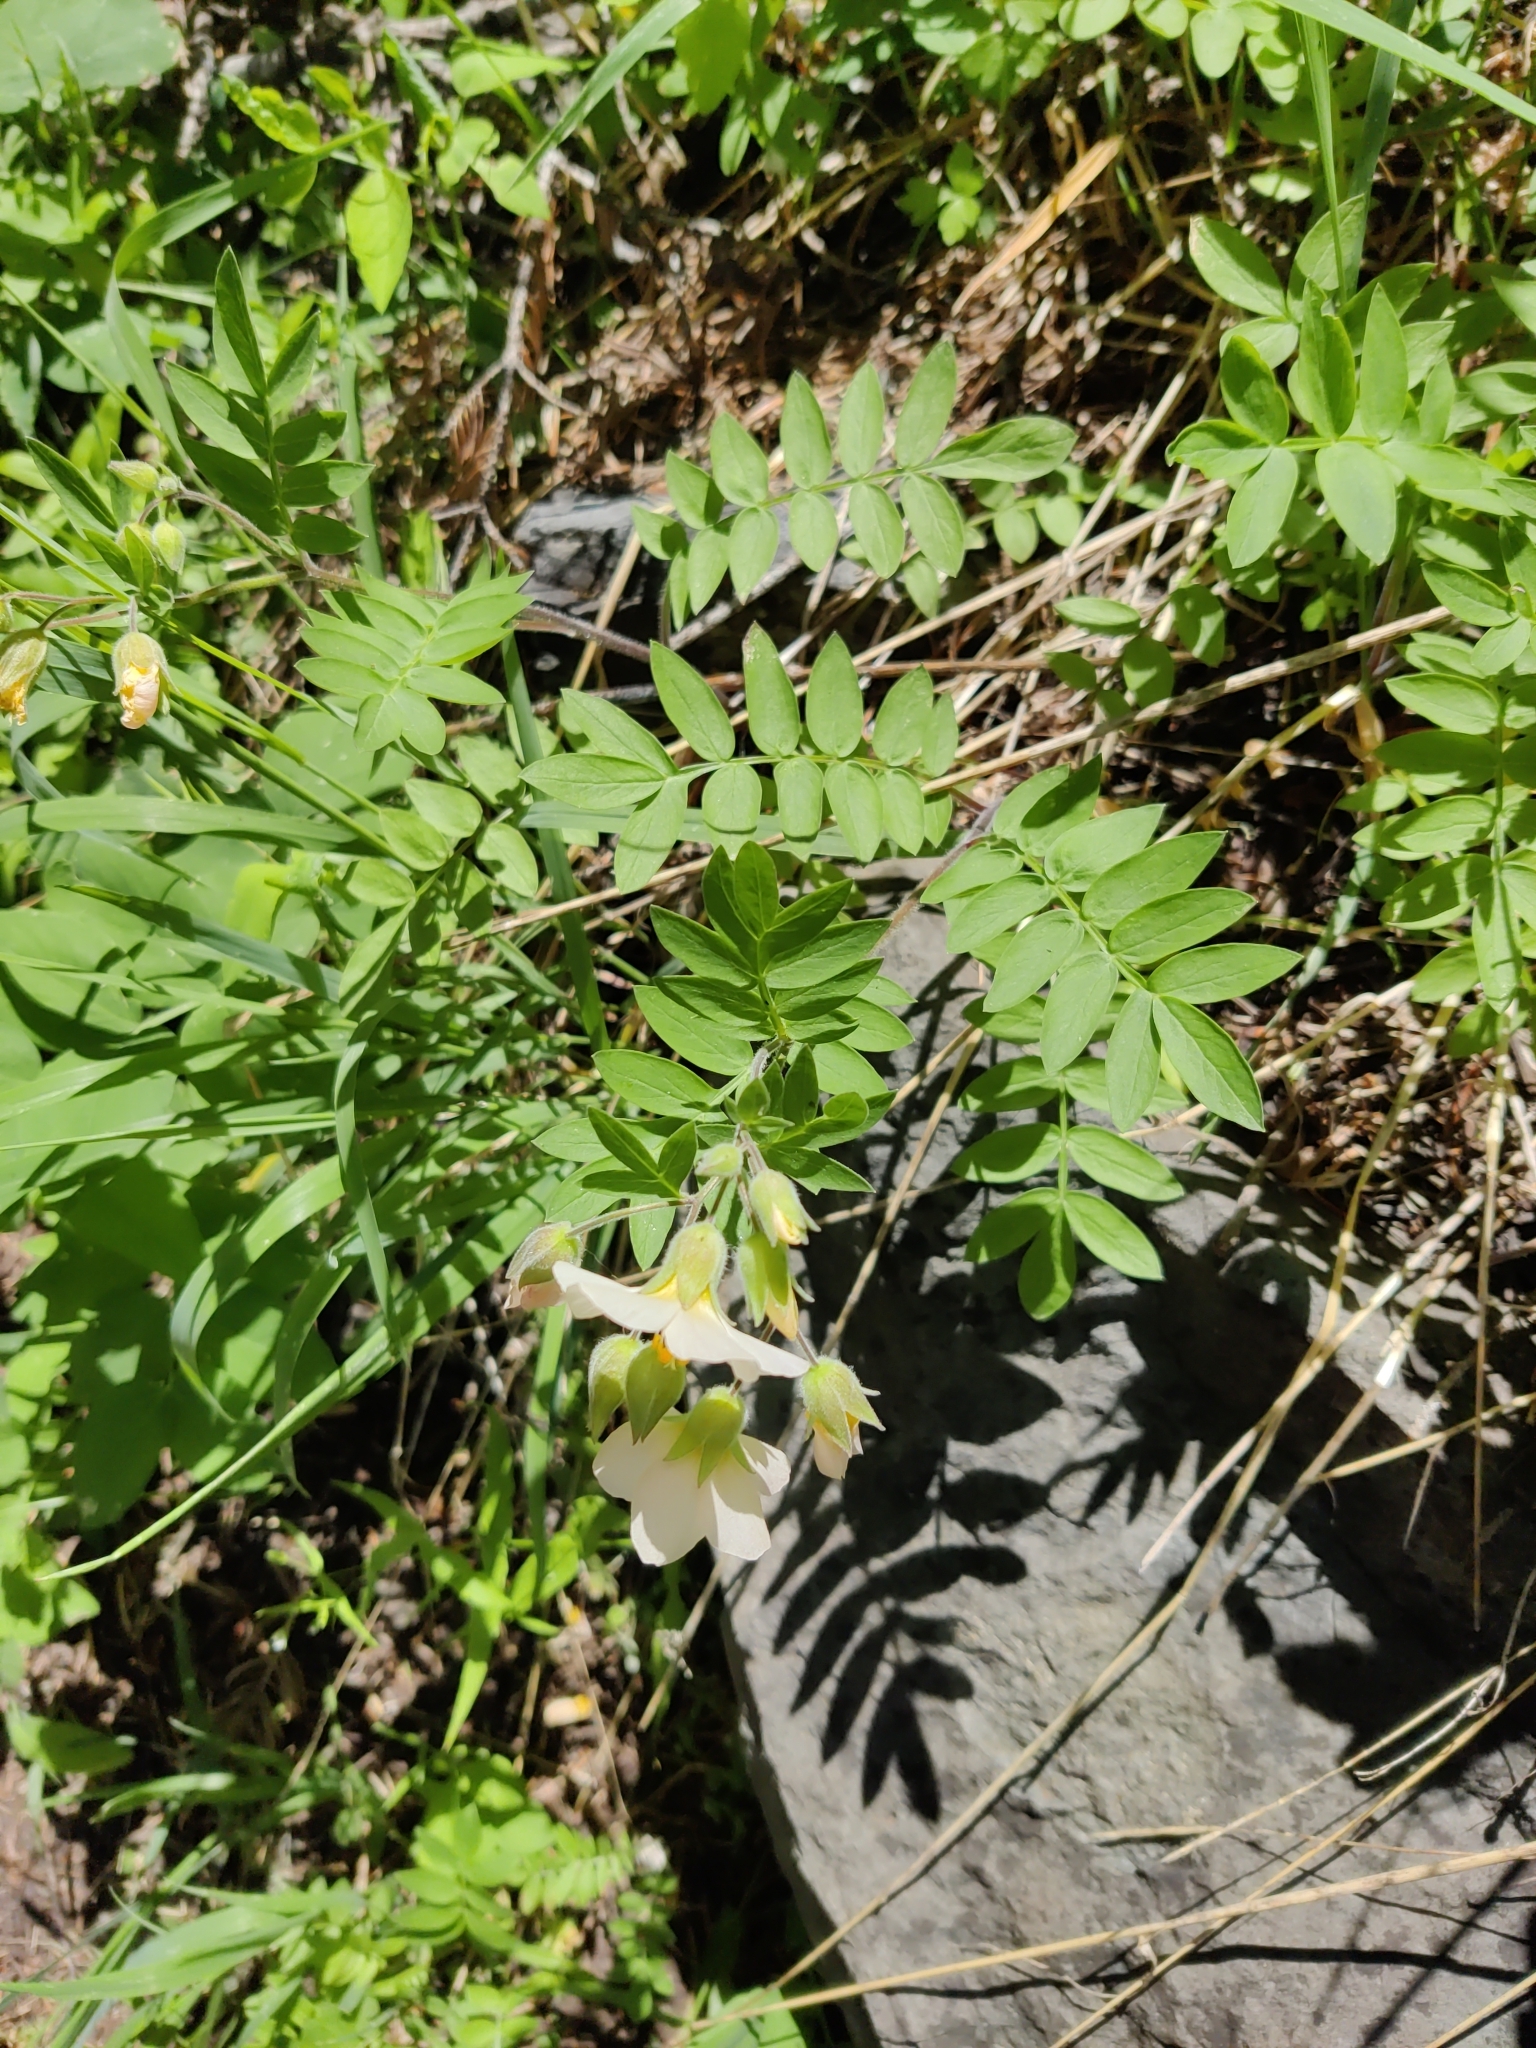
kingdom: Plantae
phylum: Tracheophyta
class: Magnoliopsida
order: Ericales
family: Polemoniaceae
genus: Polemonium
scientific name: Polemonium carneum
